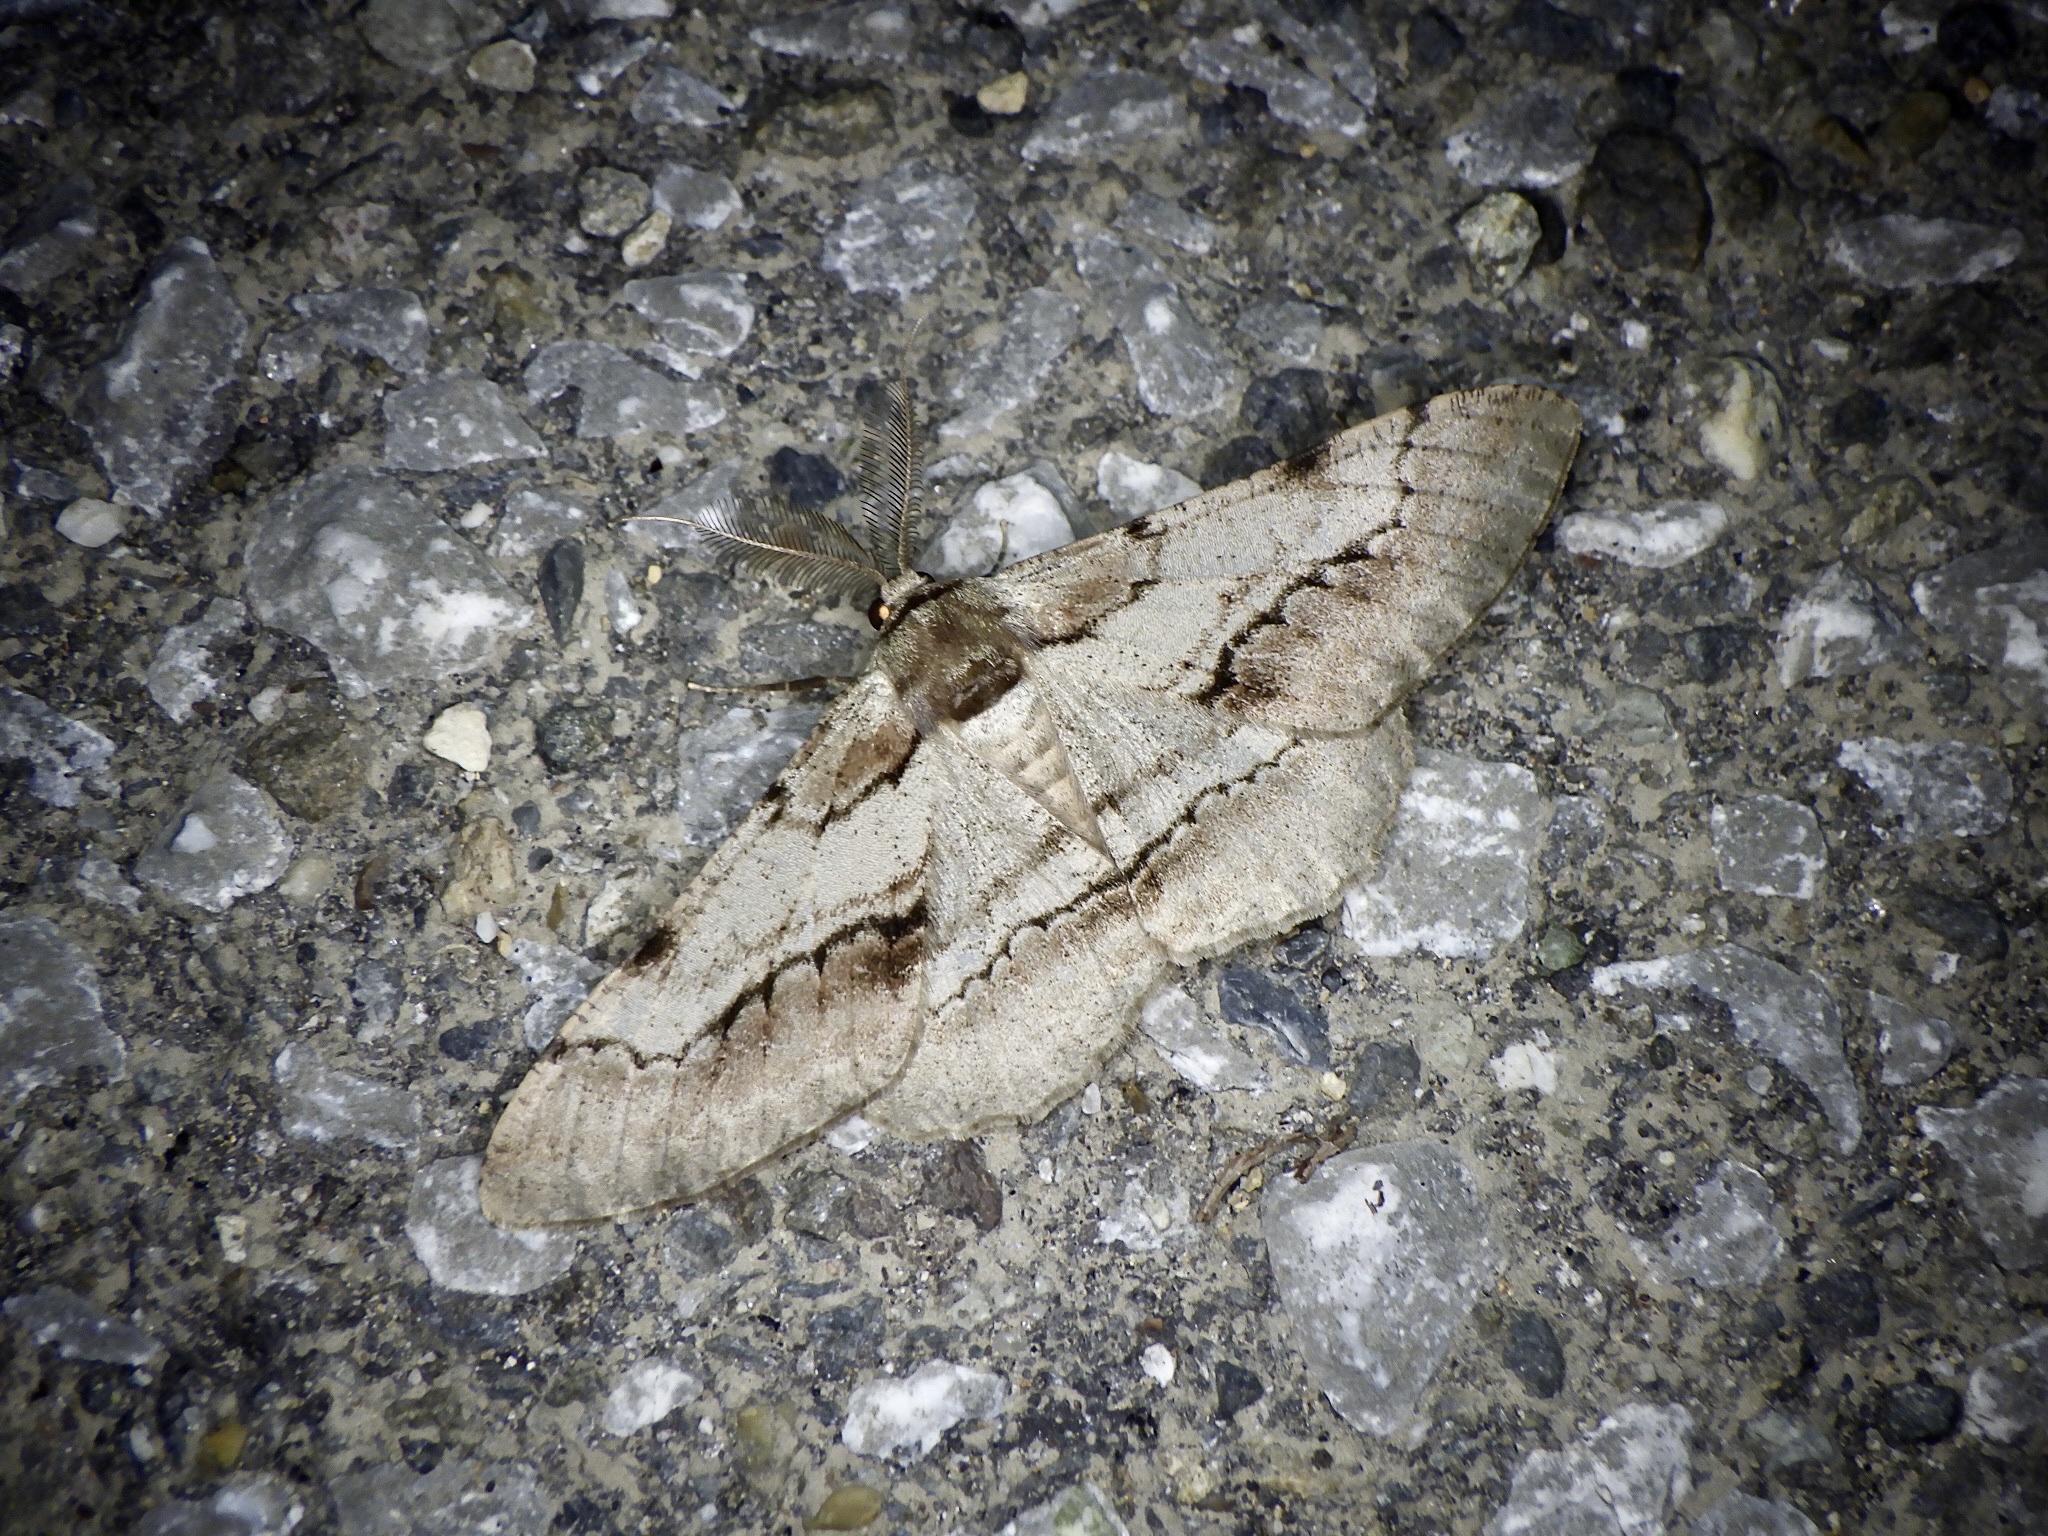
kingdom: Animalia
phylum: Arthropoda
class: Insecta
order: Lepidoptera
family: Geometridae
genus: Phthonosema
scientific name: Phthonosema tendinosaria
